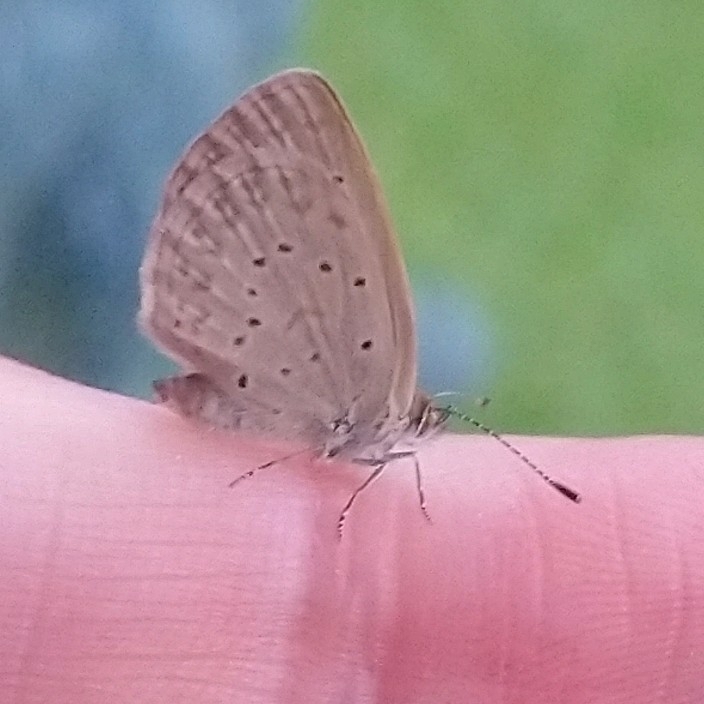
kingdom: Animalia
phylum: Arthropoda
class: Insecta
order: Lepidoptera
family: Lycaenidae
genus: Zizeeria
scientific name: Zizeeria knysna
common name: African grass blue
